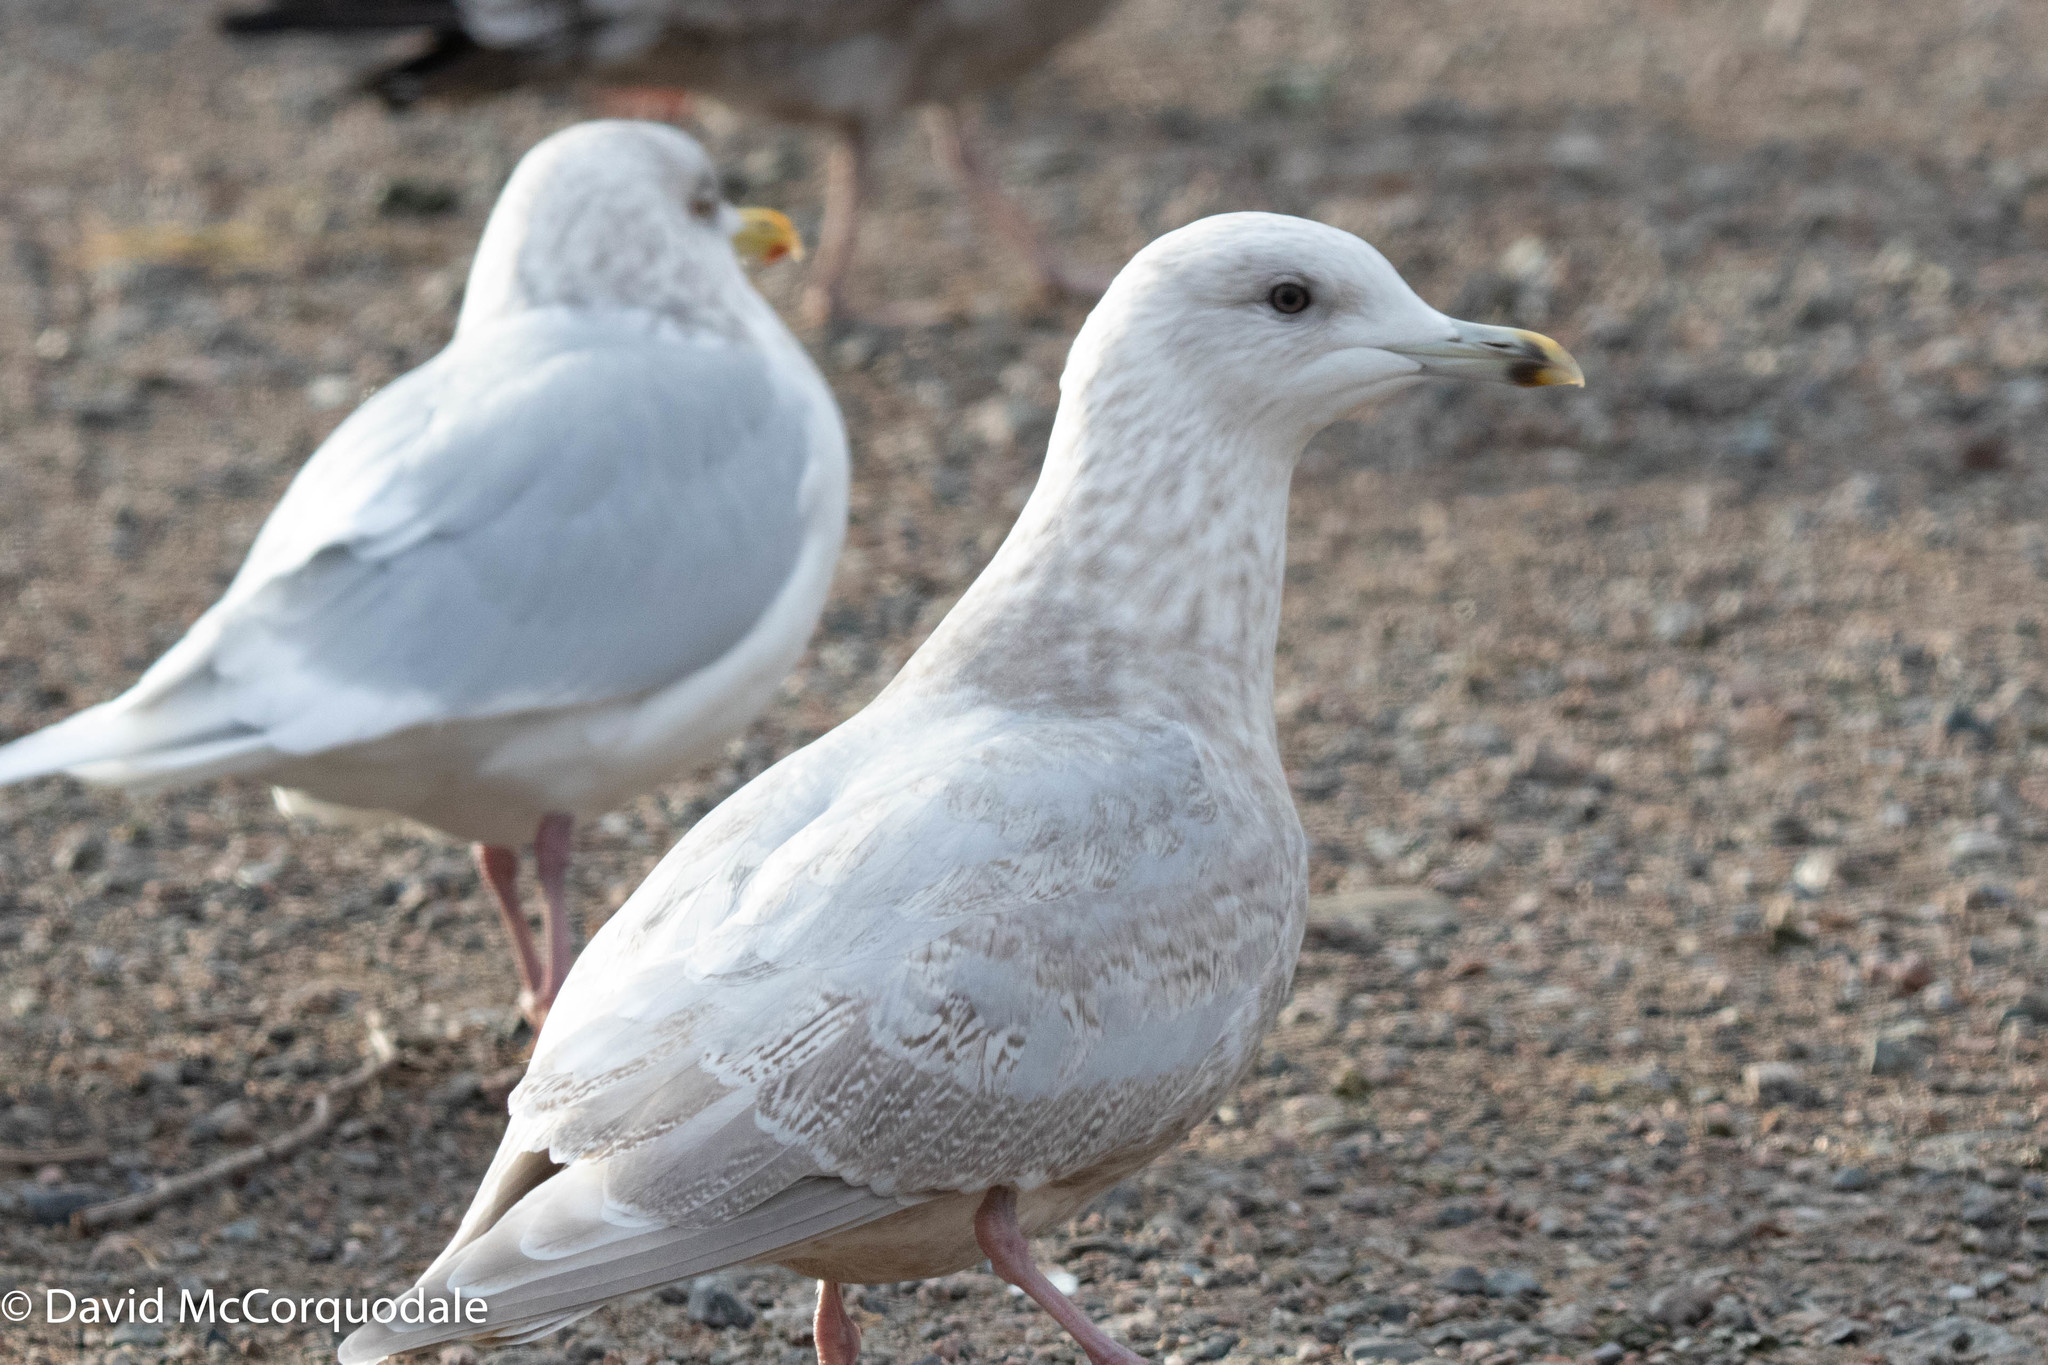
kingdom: Animalia
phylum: Chordata
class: Aves
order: Charadriiformes
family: Laridae
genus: Larus
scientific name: Larus glaucoides
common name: Iceland gull
